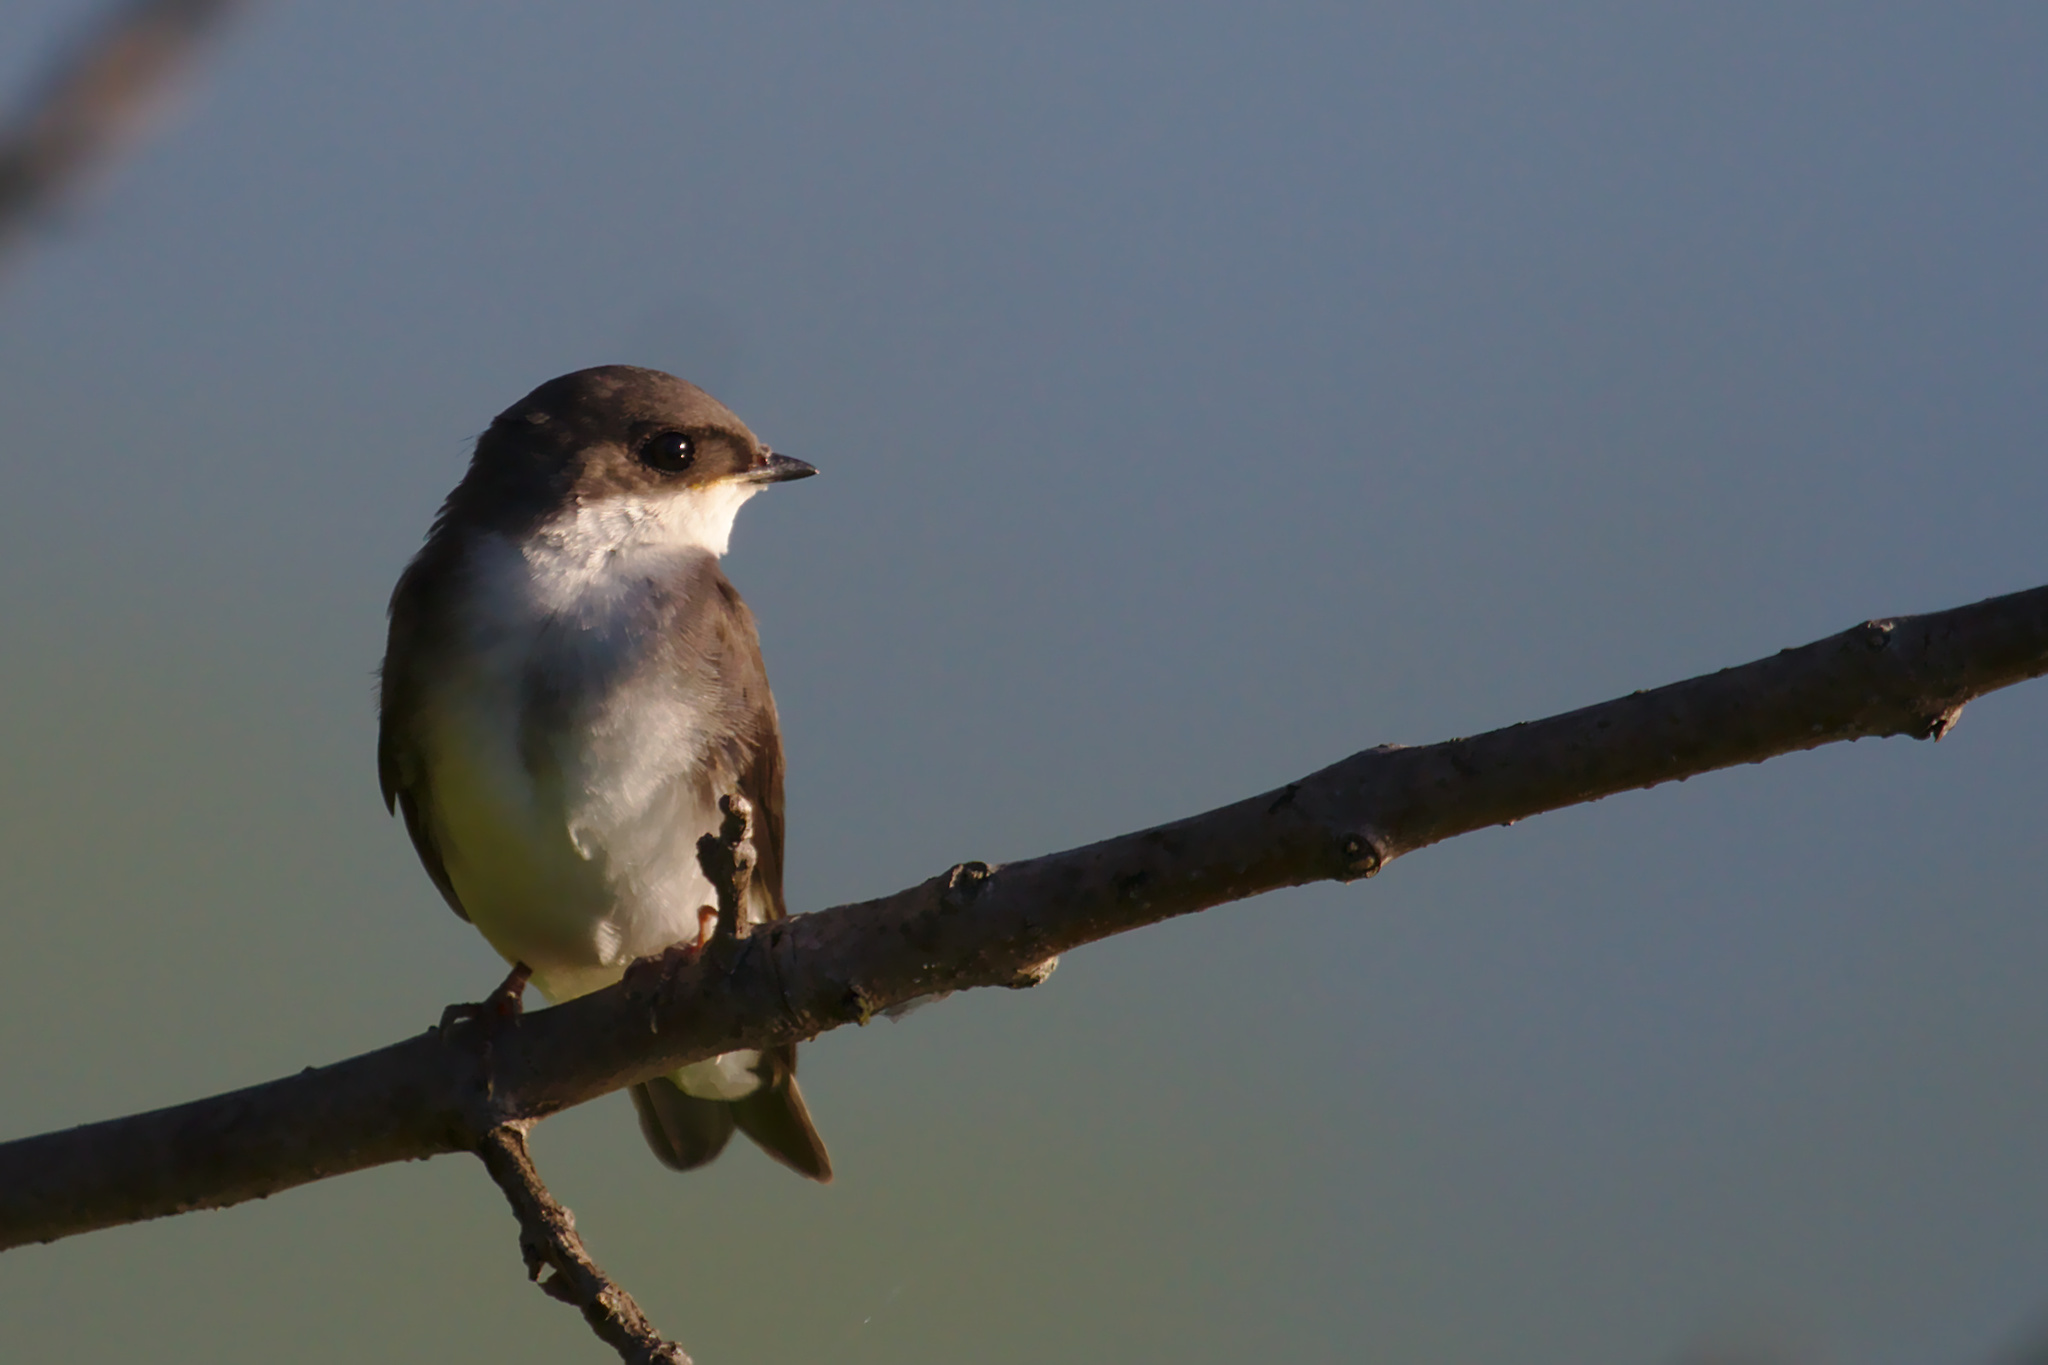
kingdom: Animalia
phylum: Chordata
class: Aves
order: Passeriformes
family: Hirundinidae
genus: Tachycineta
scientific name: Tachycineta bicolor
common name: Tree swallow
